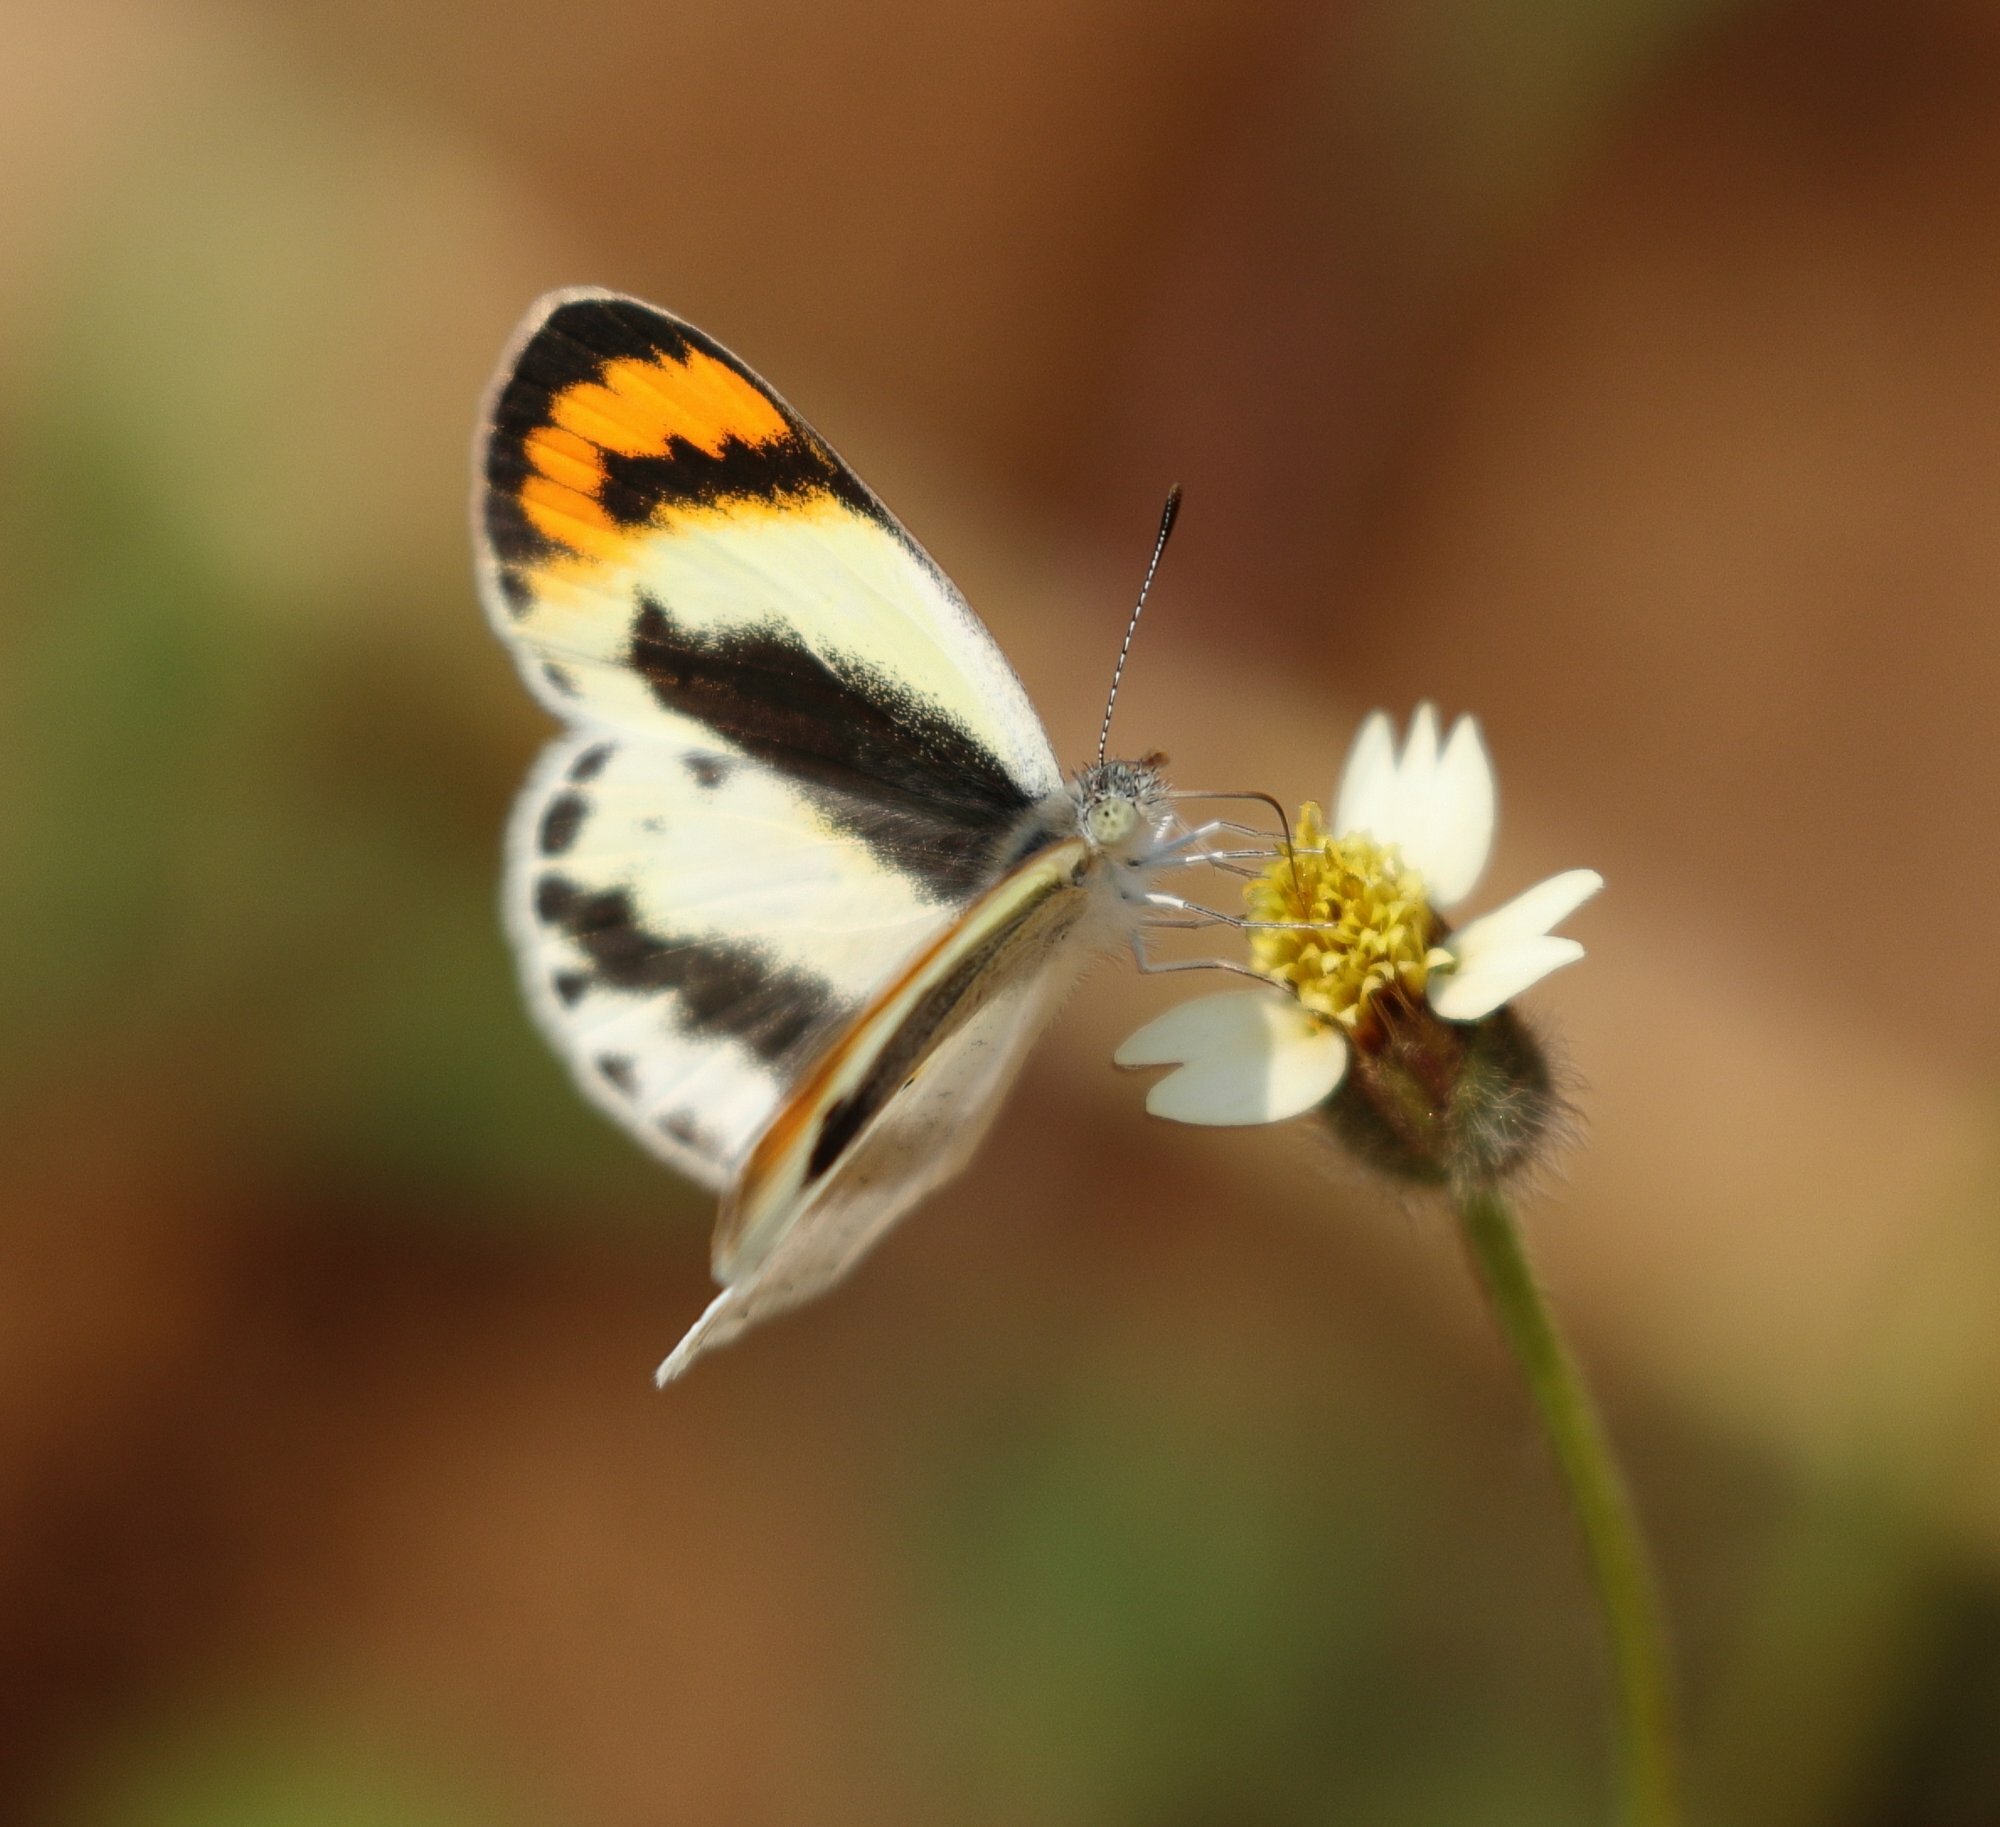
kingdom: Animalia
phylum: Arthropoda
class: Insecta
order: Lepidoptera
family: Pieridae
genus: Colotis
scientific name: Colotis euippe
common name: Round-winged orange tip
